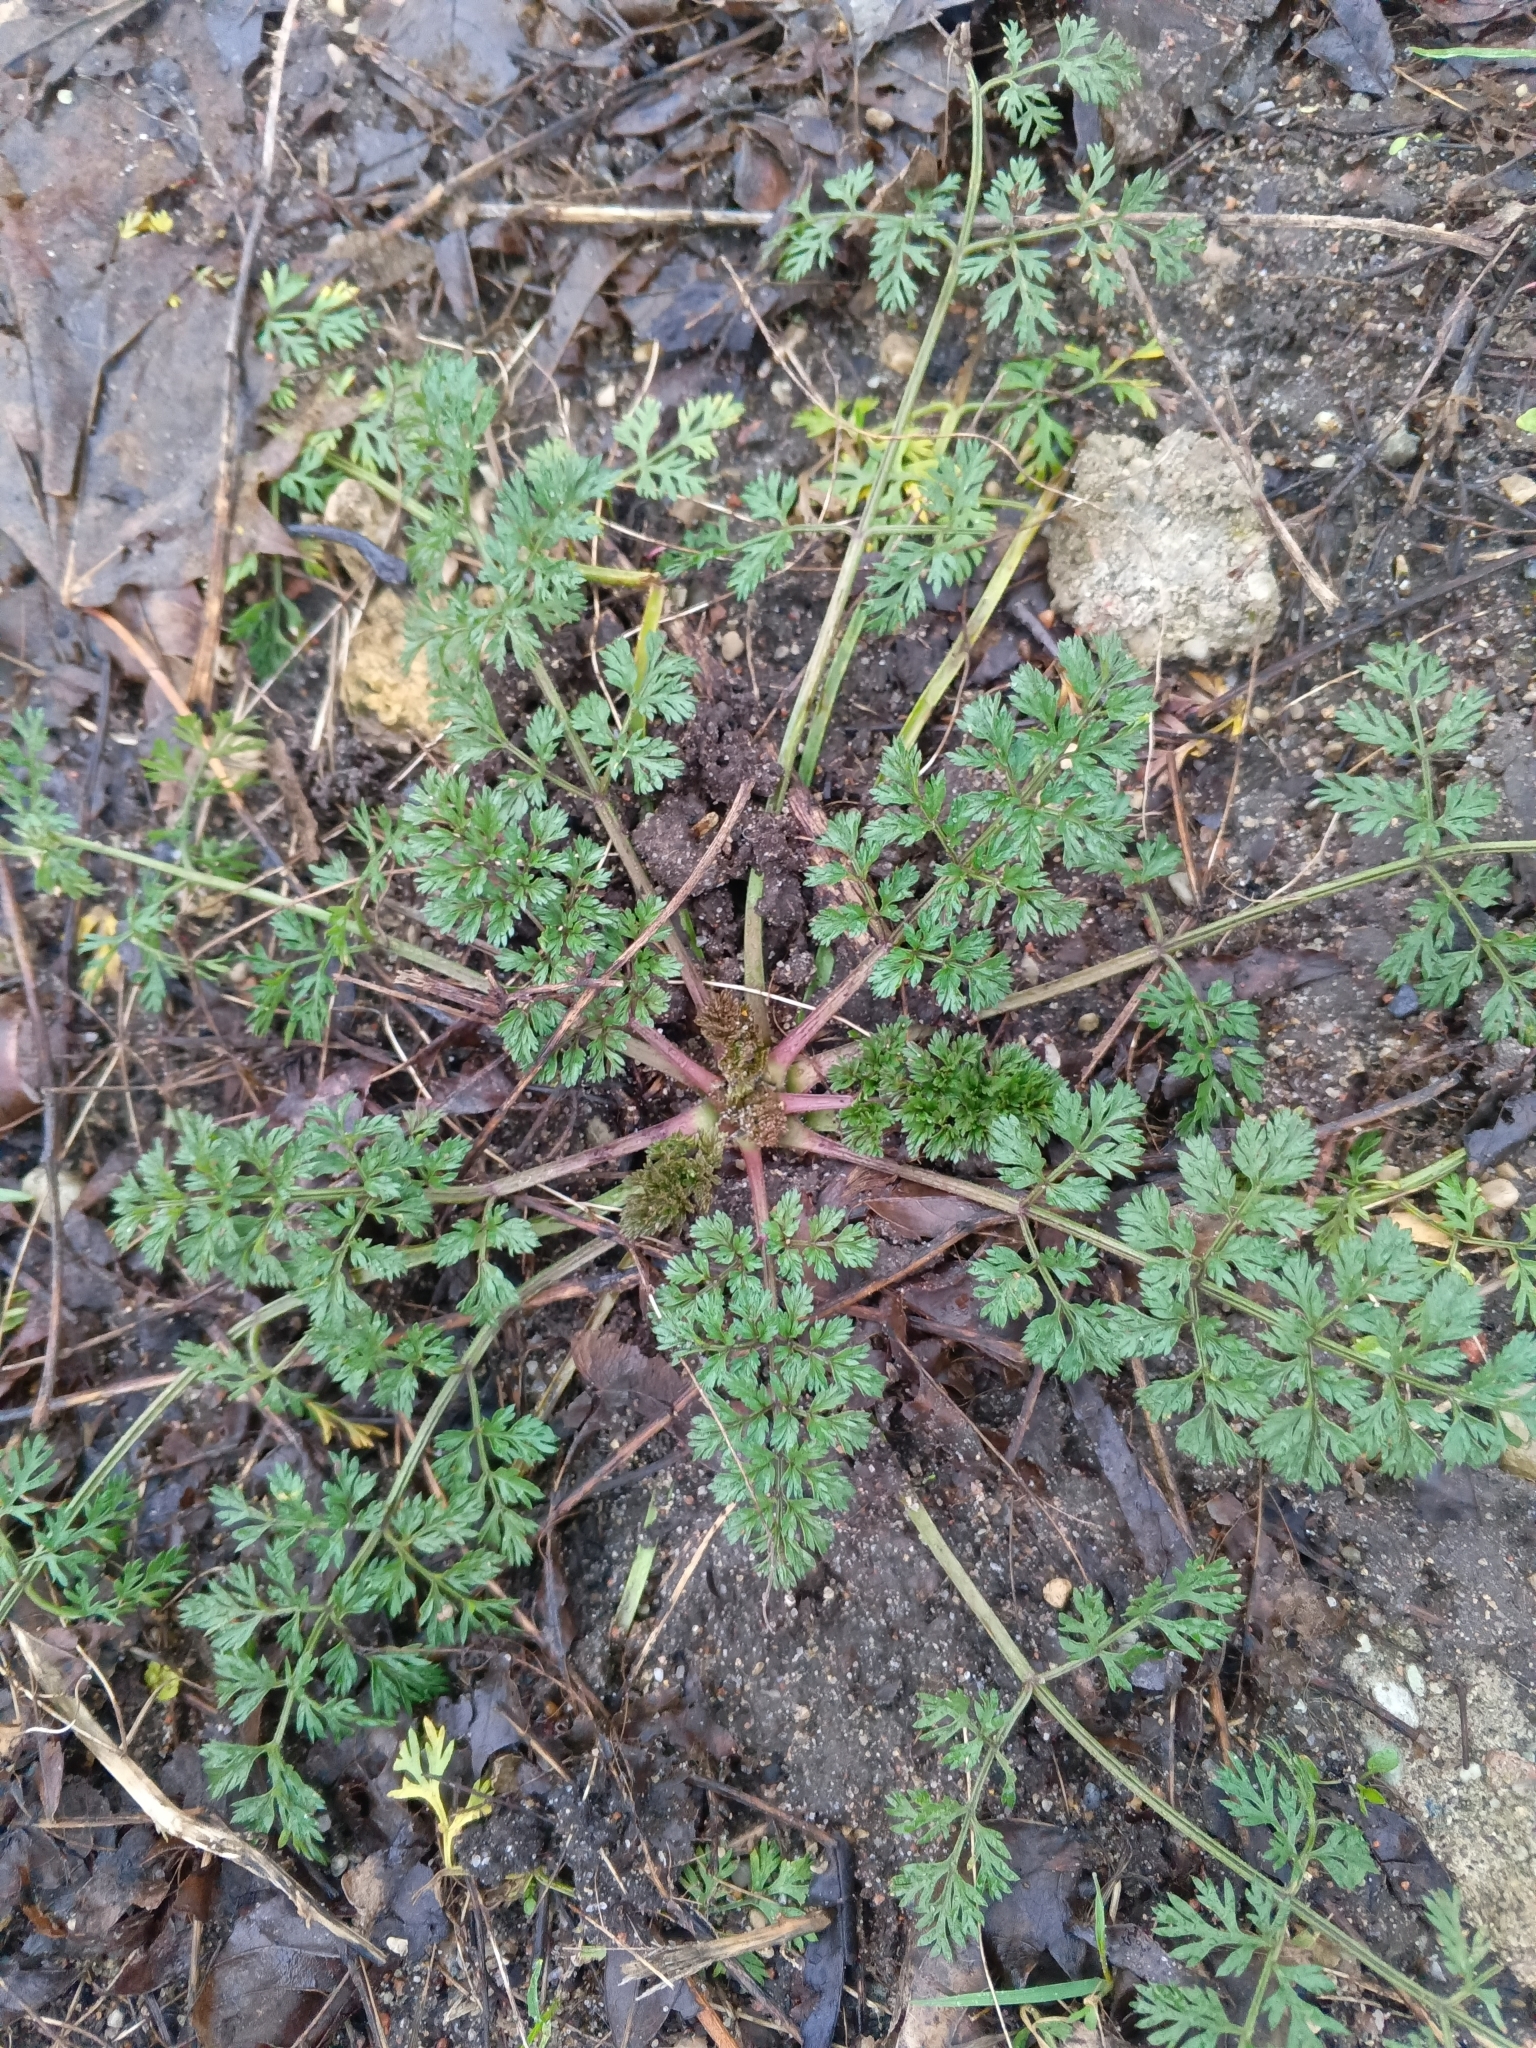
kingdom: Plantae
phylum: Tracheophyta
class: Magnoliopsida
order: Apiales
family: Apiaceae
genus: Daucus
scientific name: Daucus carota
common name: Wild carrot
